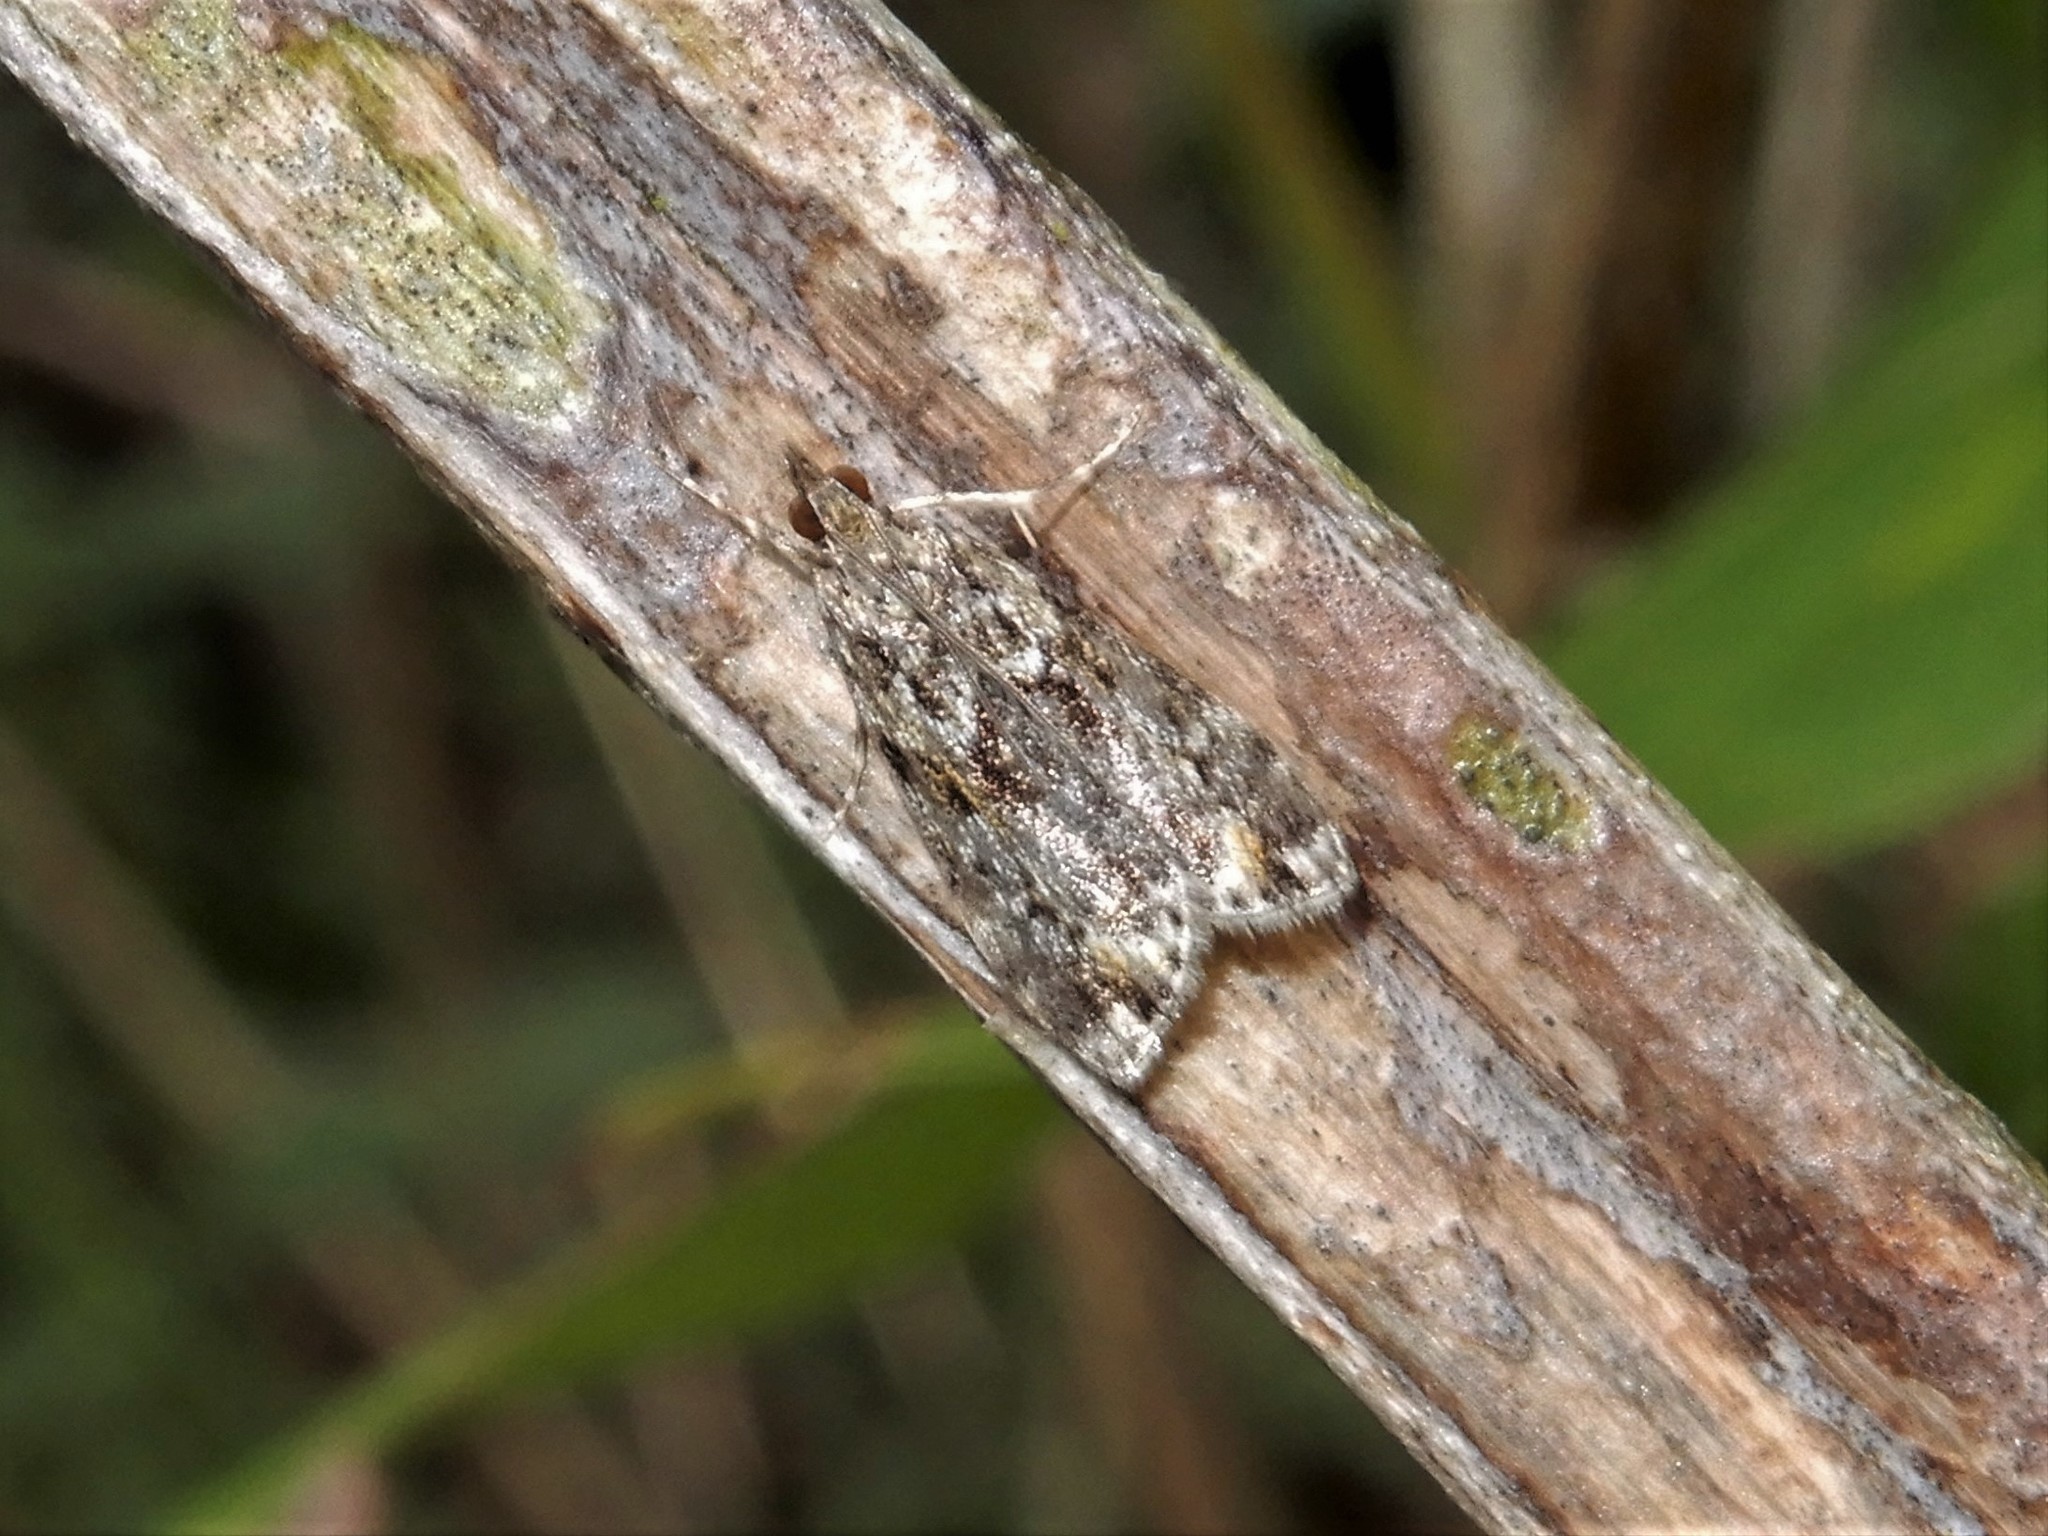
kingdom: Animalia
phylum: Arthropoda
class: Insecta
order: Lepidoptera
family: Crambidae
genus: Eudonia
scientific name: Eudonia minualis
